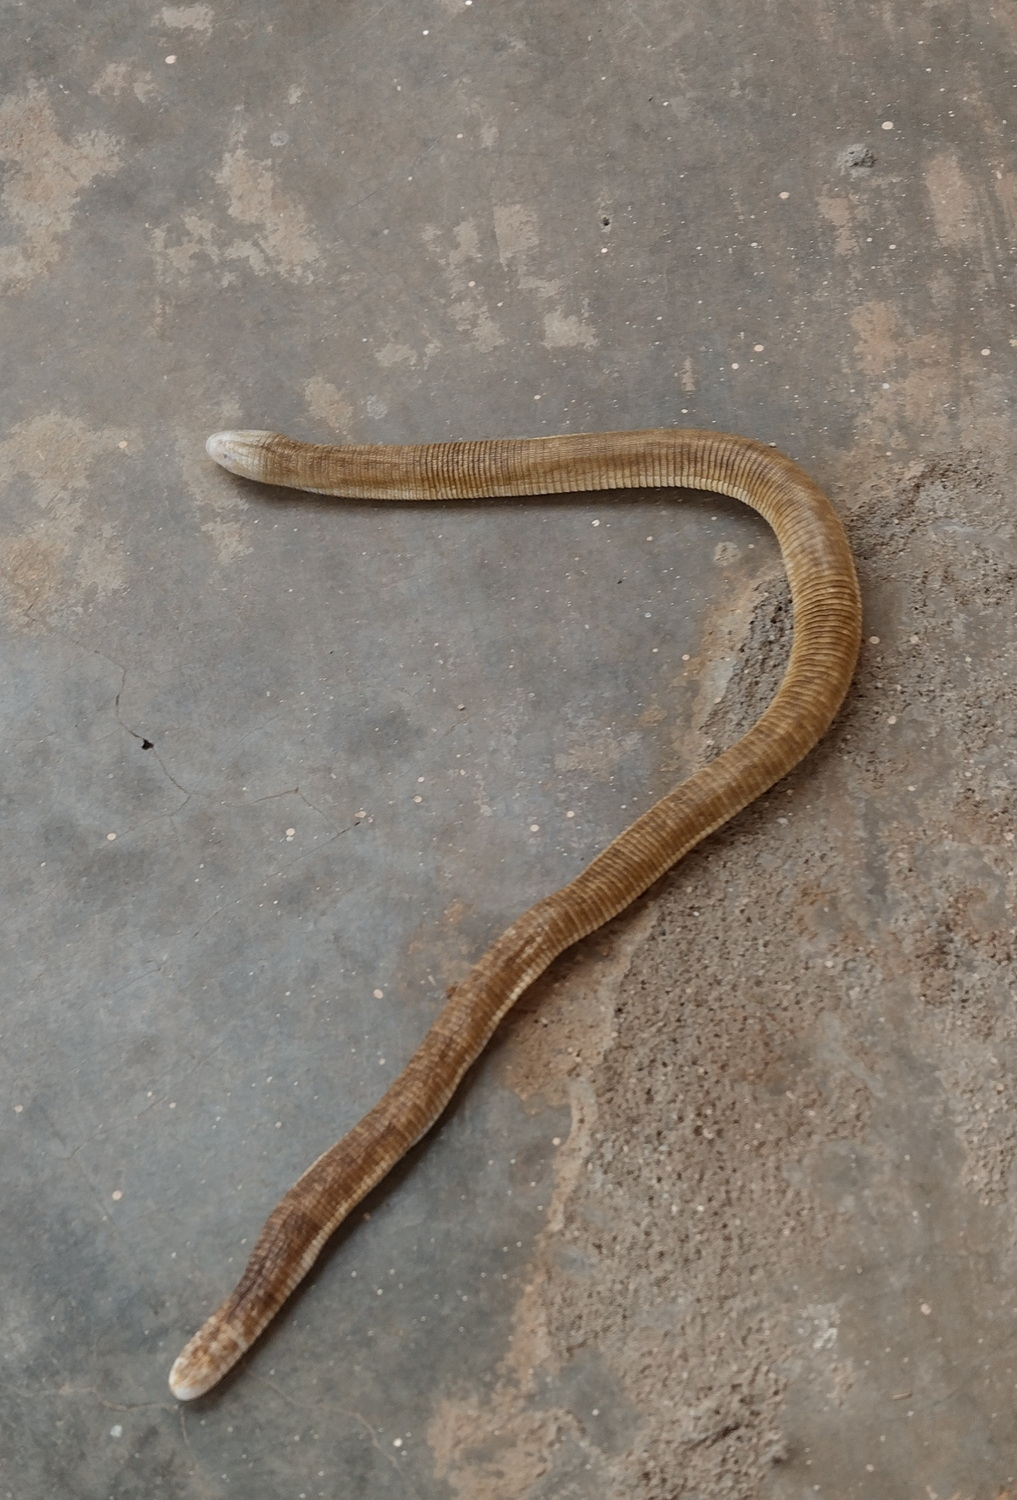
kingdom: Animalia
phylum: Chordata
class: Squamata
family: Amphisbaenidae
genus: Amphisbaena
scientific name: Amphisbaena alba
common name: Red worm lizard
